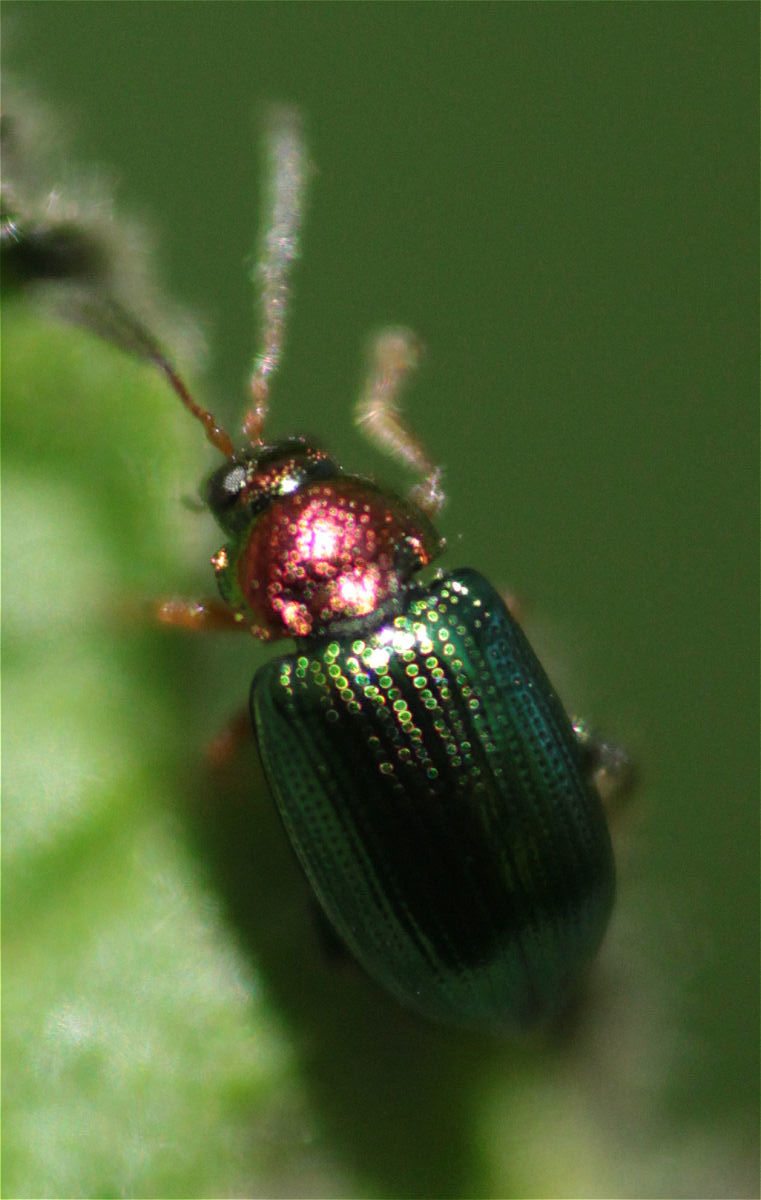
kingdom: Animalia
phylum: Arthropoda
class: Insecta
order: Coleoptera
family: Chrysomelidae
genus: Crepidodera
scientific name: Crepidodera aurata
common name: Willow flea beetle
